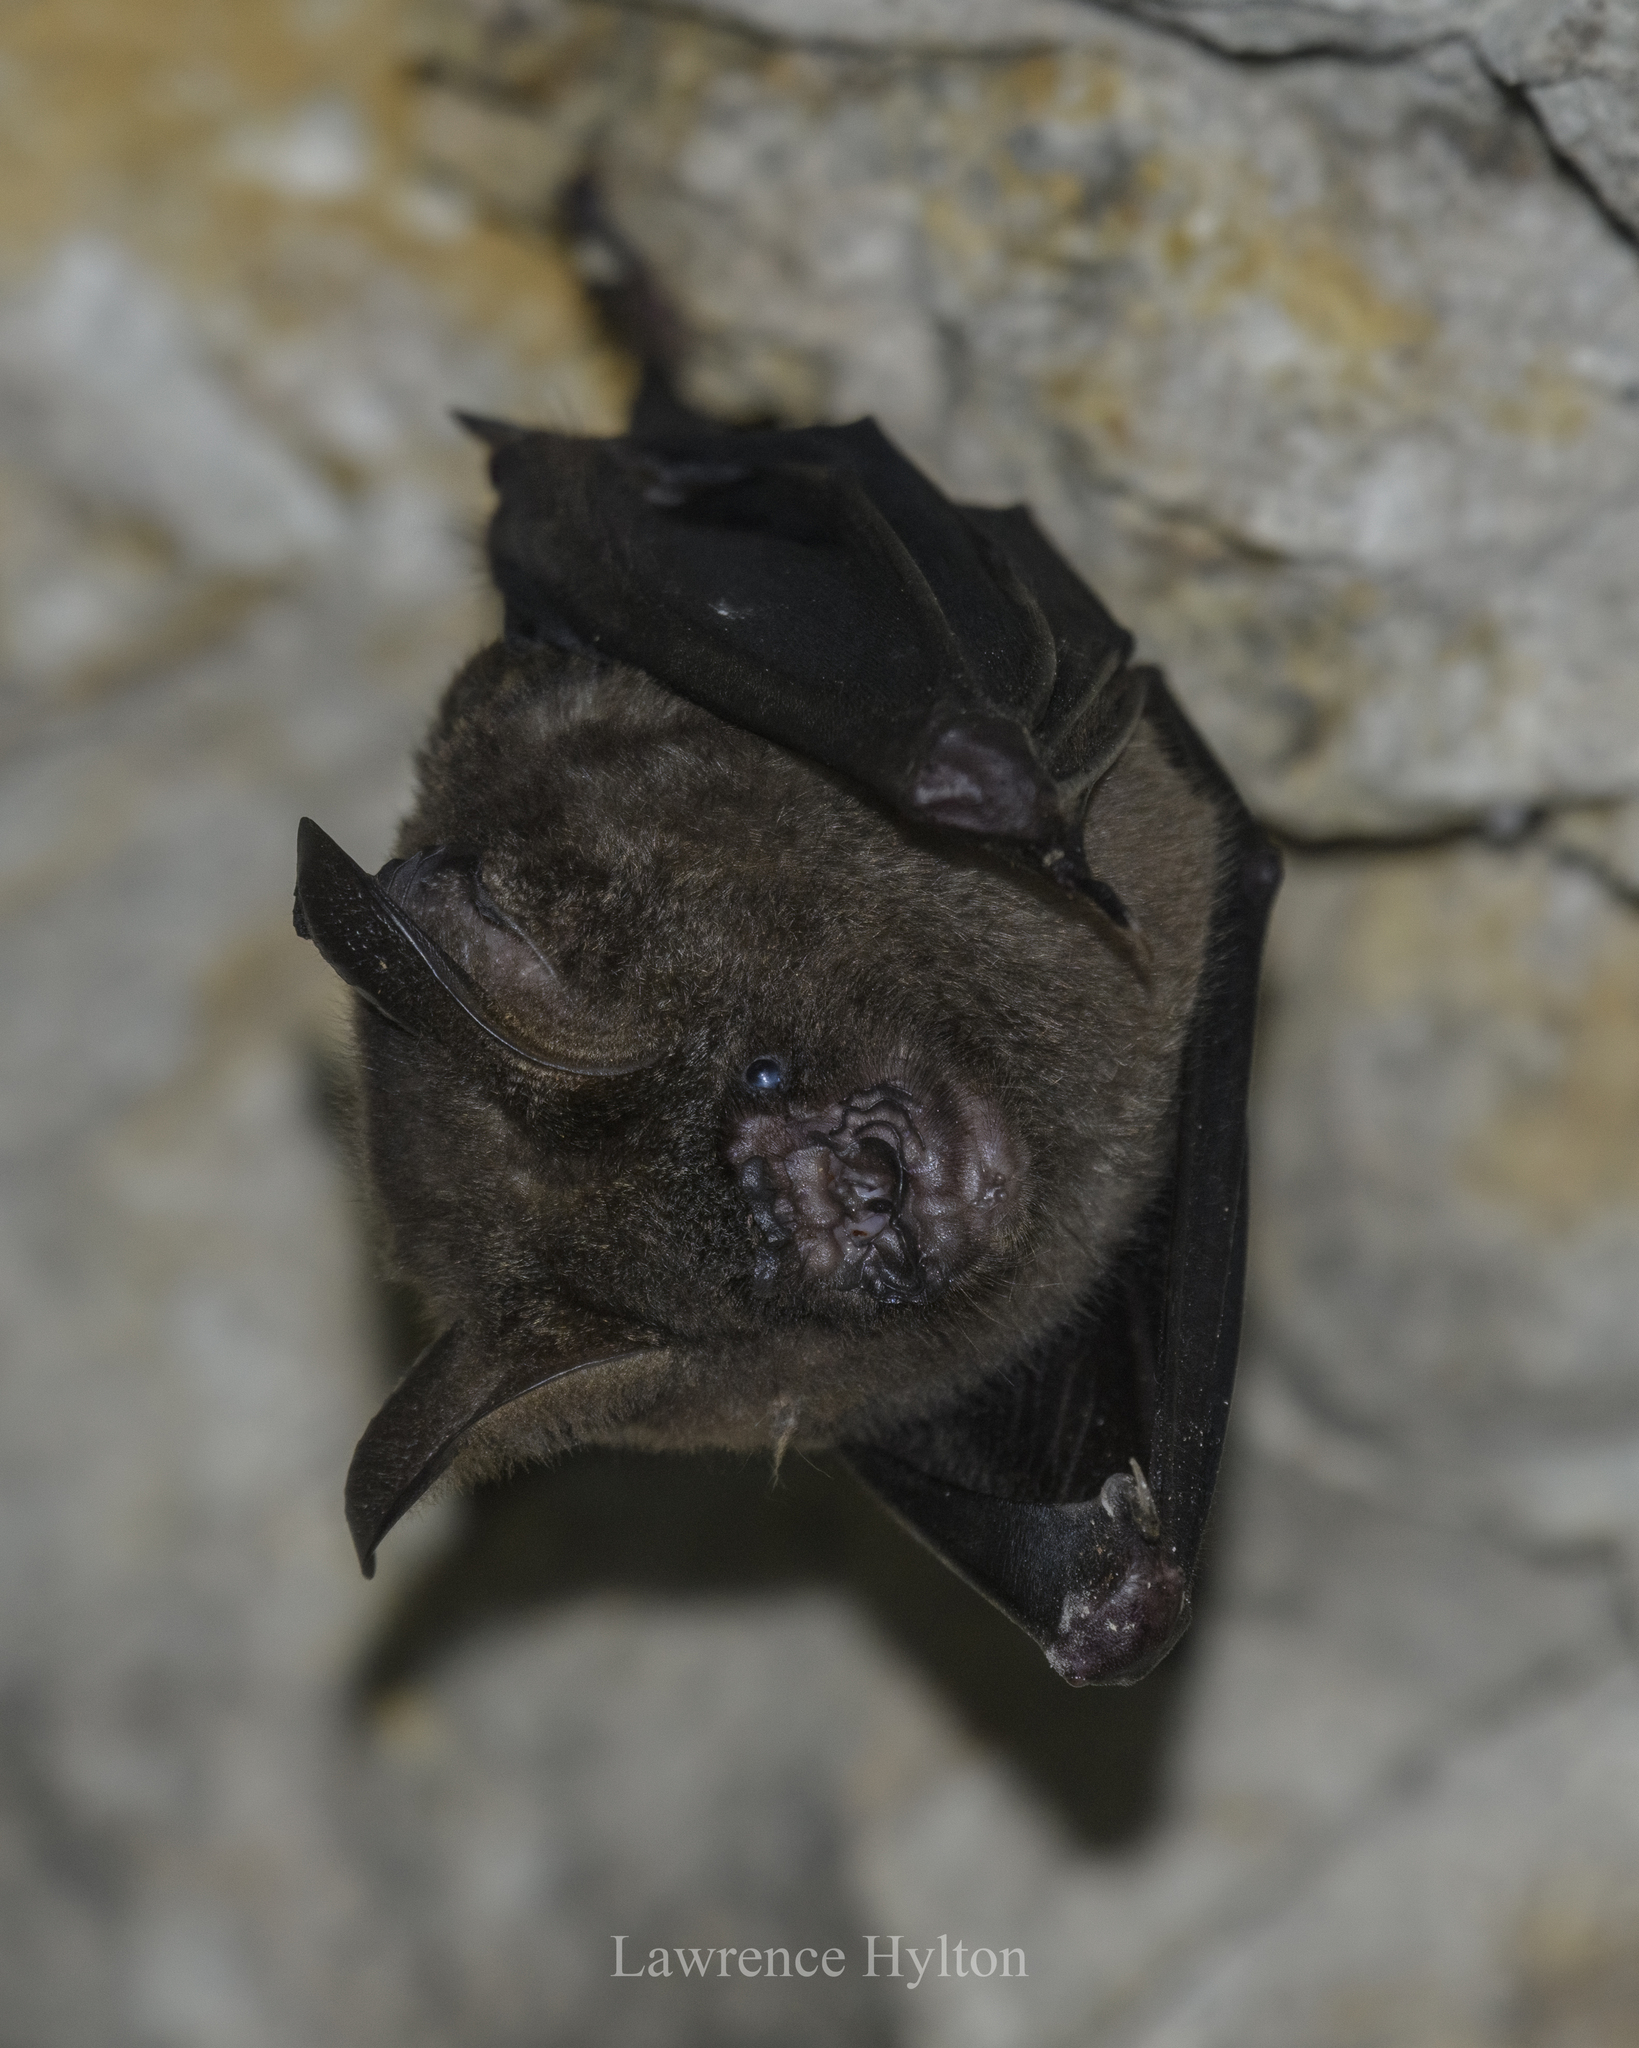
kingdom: Animalia
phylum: Chordata
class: Mammalia
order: Chiroptera
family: Hipposideridae
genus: Hipposideros
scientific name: Hipposideros armiger
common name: Great leaf-nosed bat
